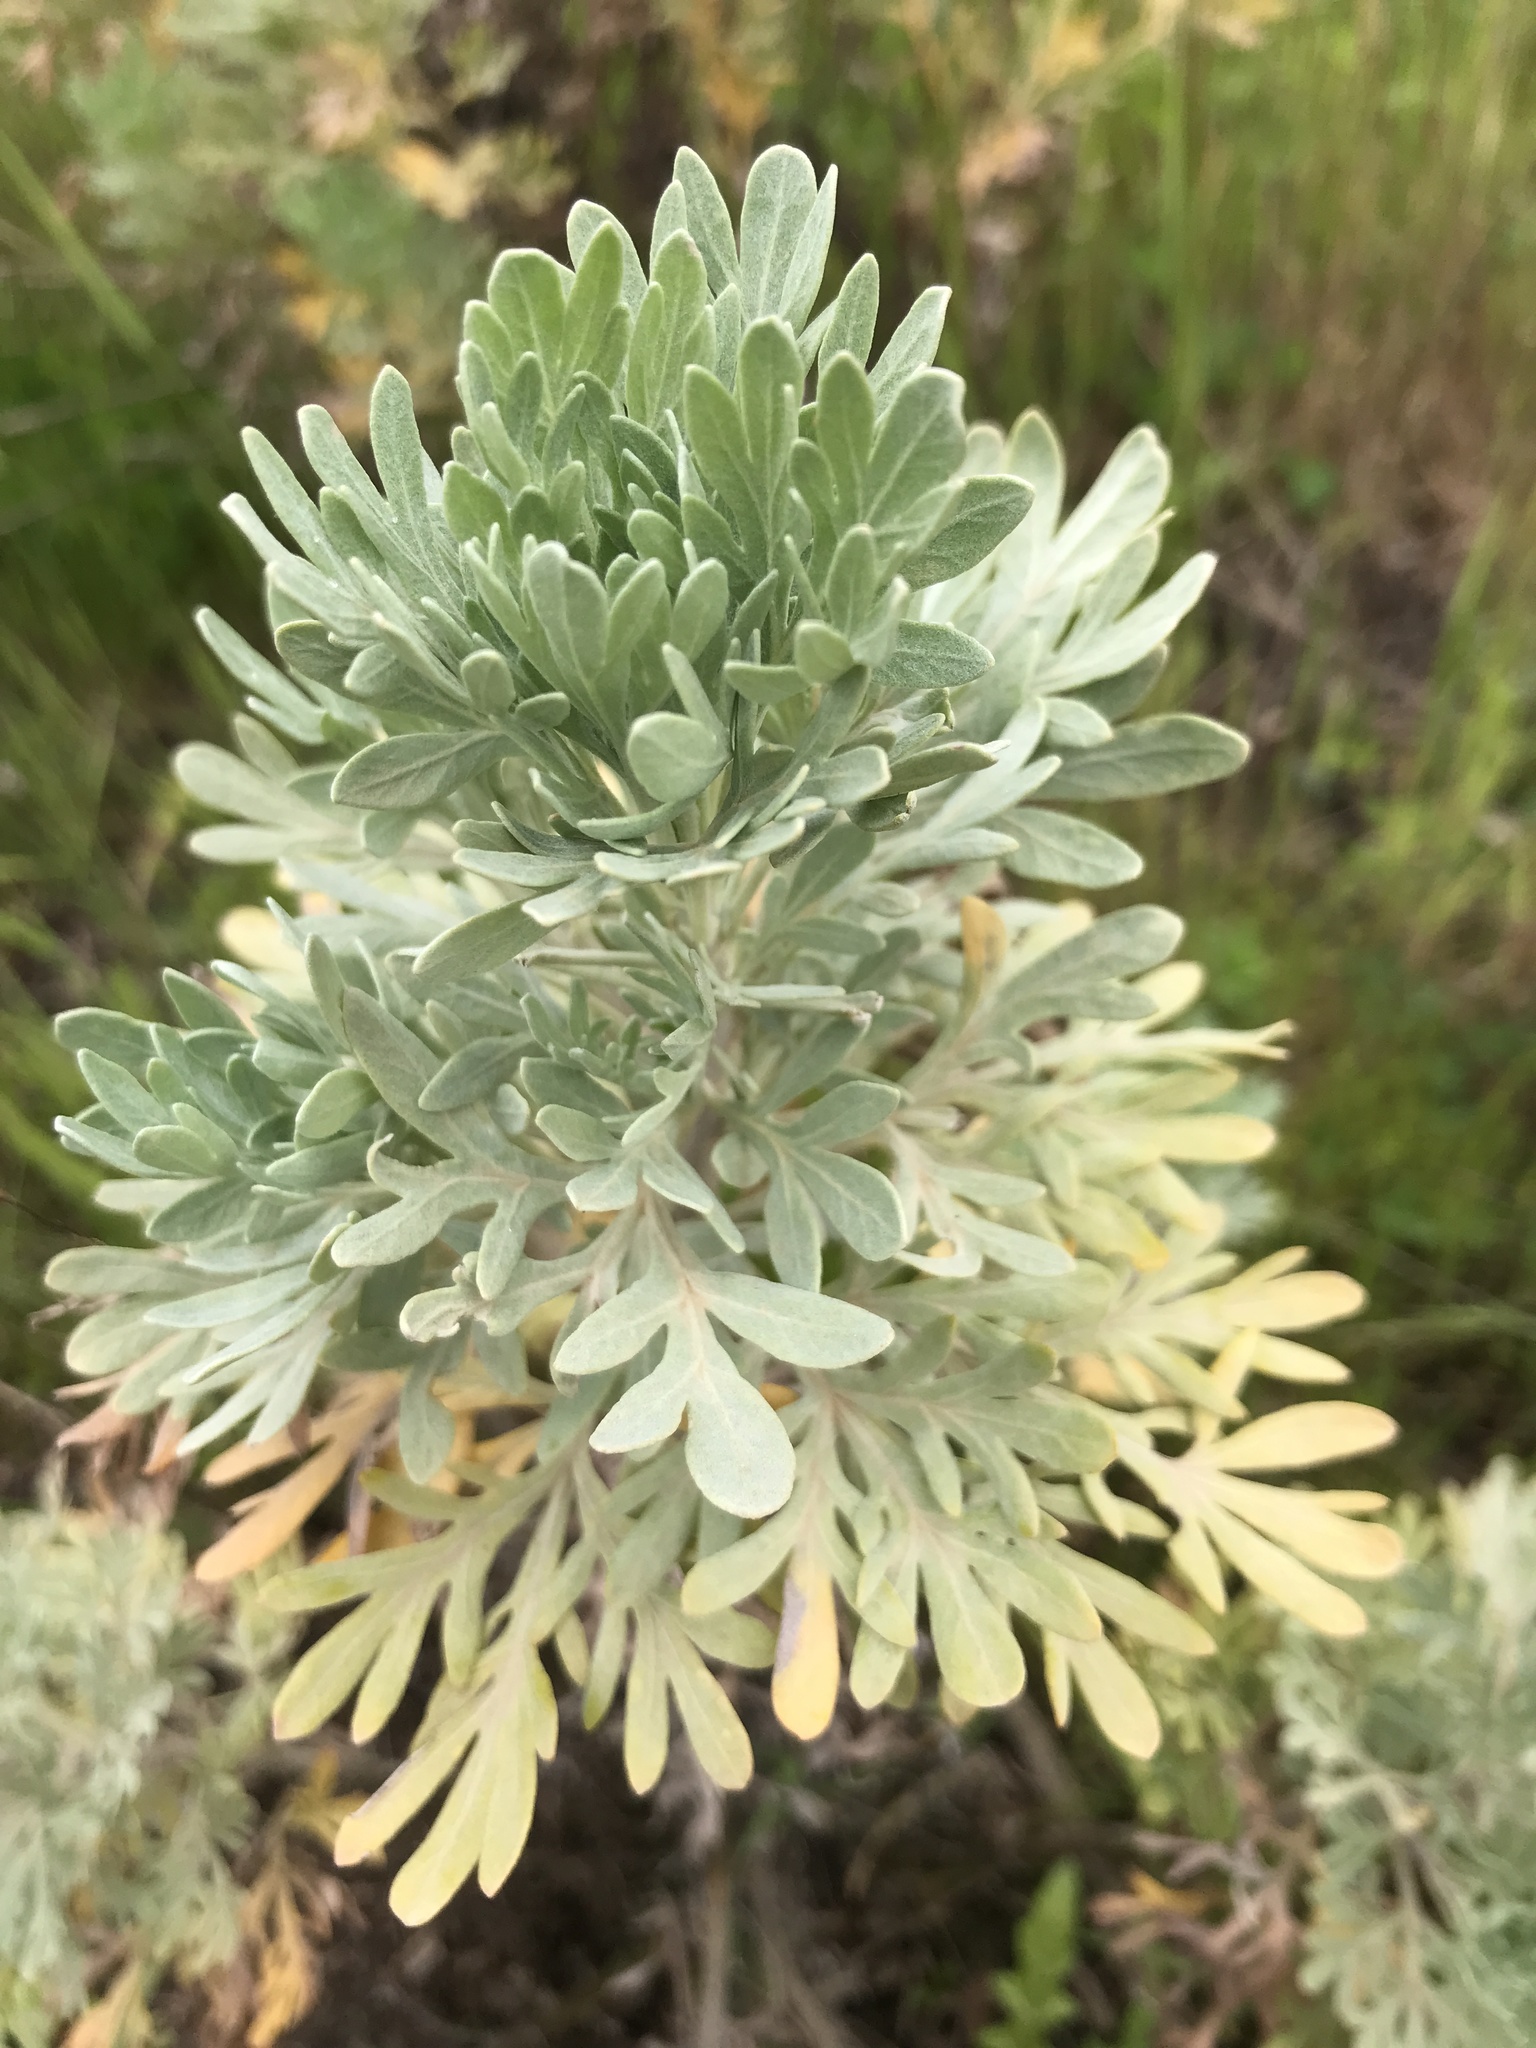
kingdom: Plantae
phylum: Tracheophyta
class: Magnoliopsida
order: Asterales
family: Asteraceae
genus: Artemisia
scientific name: Artemisia thuscula
